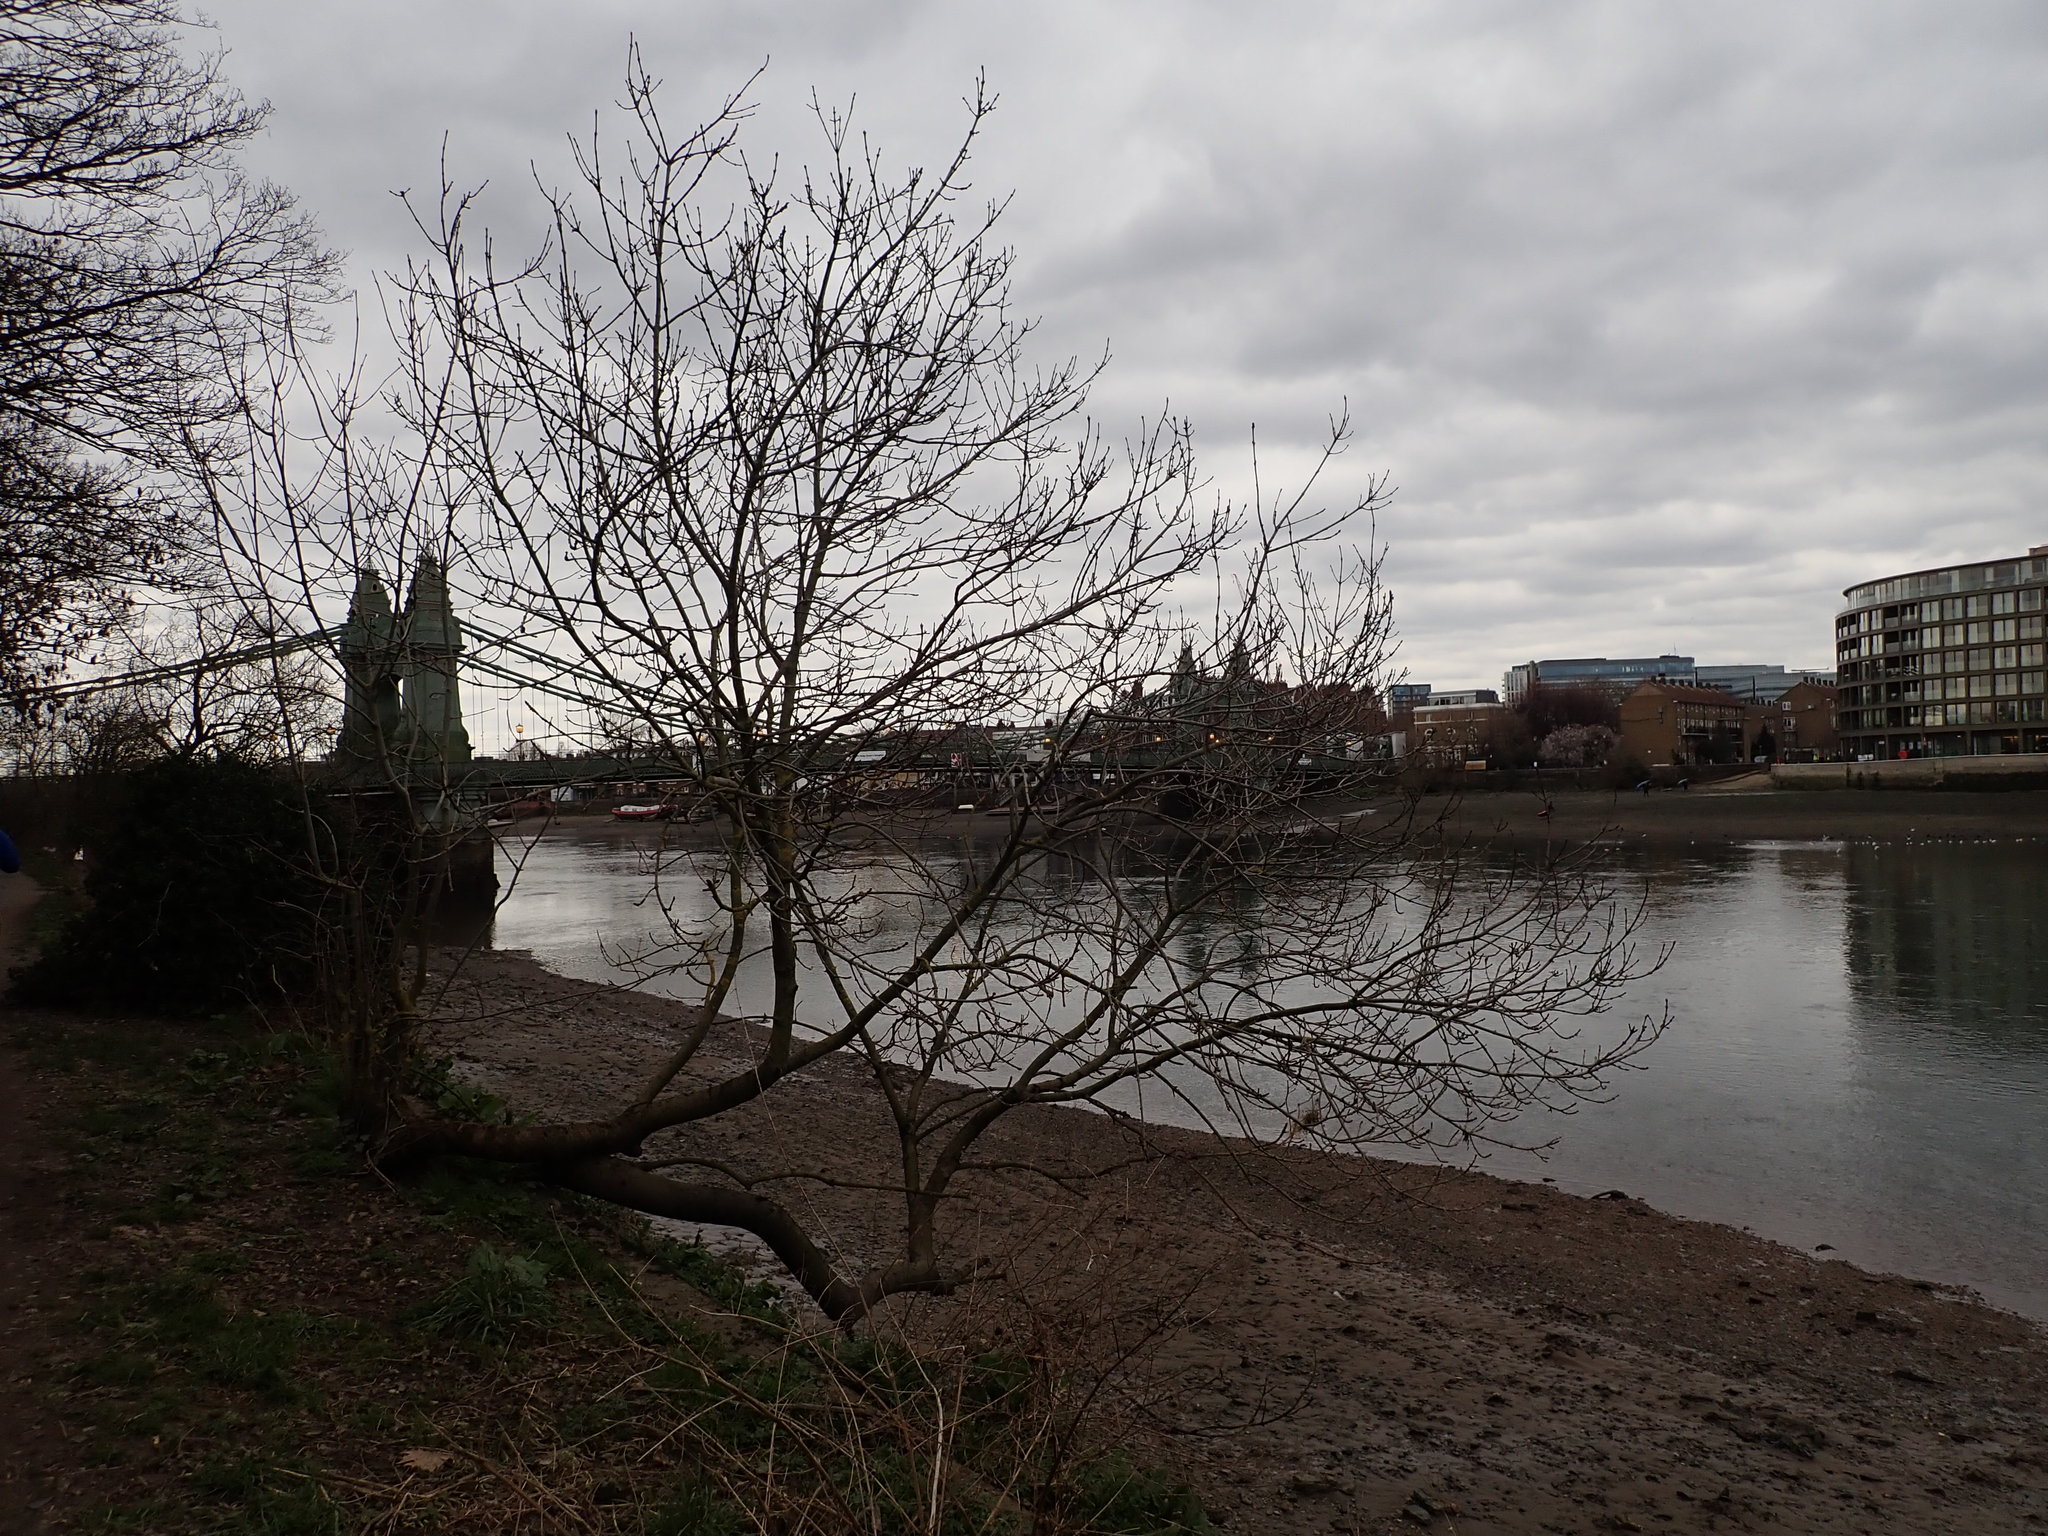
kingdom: Plantae
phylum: Tracheophyta
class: Magnoliopsida
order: Lamiales
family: Oleaceae
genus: Fraxinus
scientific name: Fraxinus excelsior
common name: European ash
